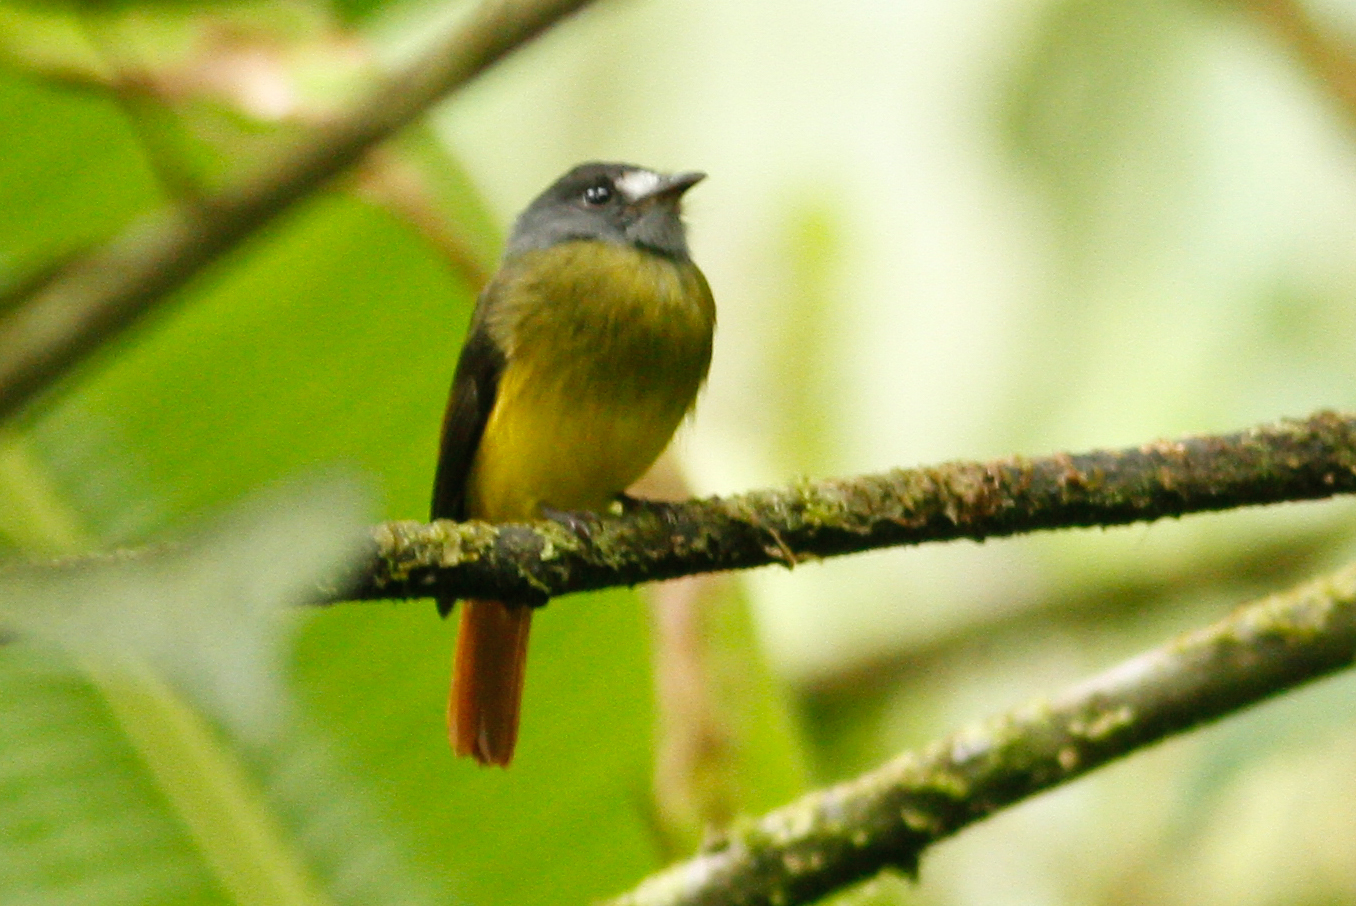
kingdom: Animalia
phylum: Chordata
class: Aves
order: Passeriformes
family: Tyrannidae
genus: Myiotriccus
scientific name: Myiotriccus ornatus
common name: Ornate flycatcher
